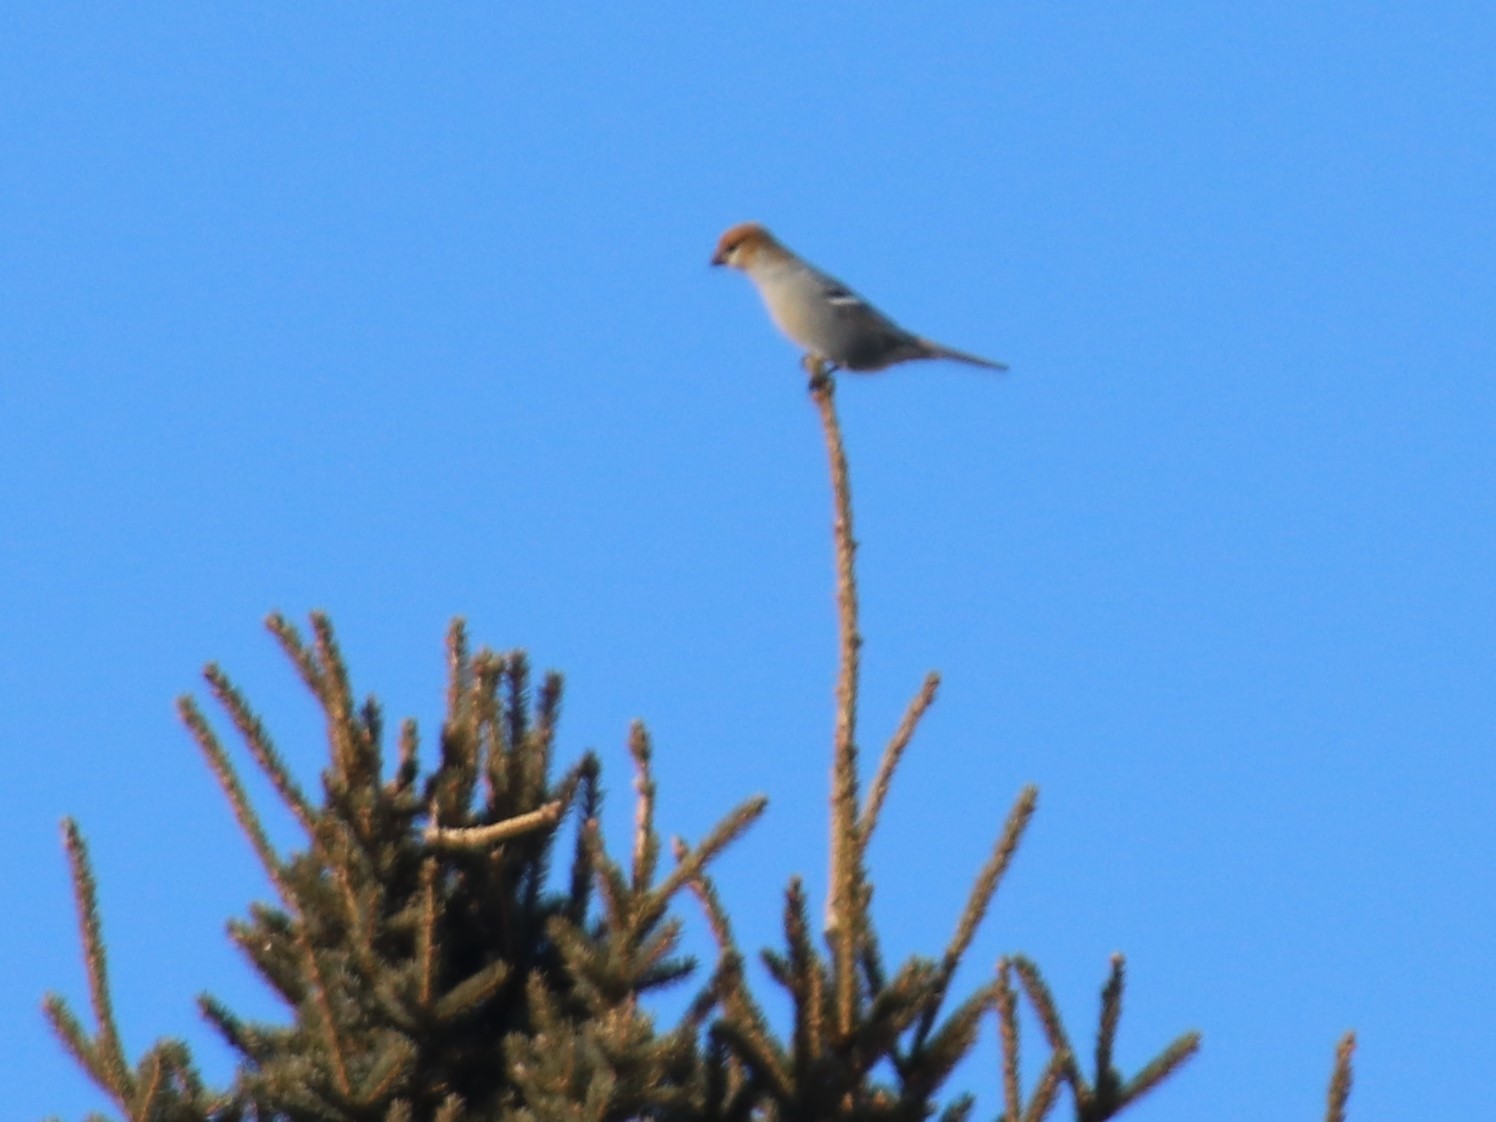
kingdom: Animalia
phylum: Chordata
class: Aves
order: Passeriformes
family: Fringillidae
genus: Pinicola
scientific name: Pinicola enucleator
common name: Pine grosbeak
